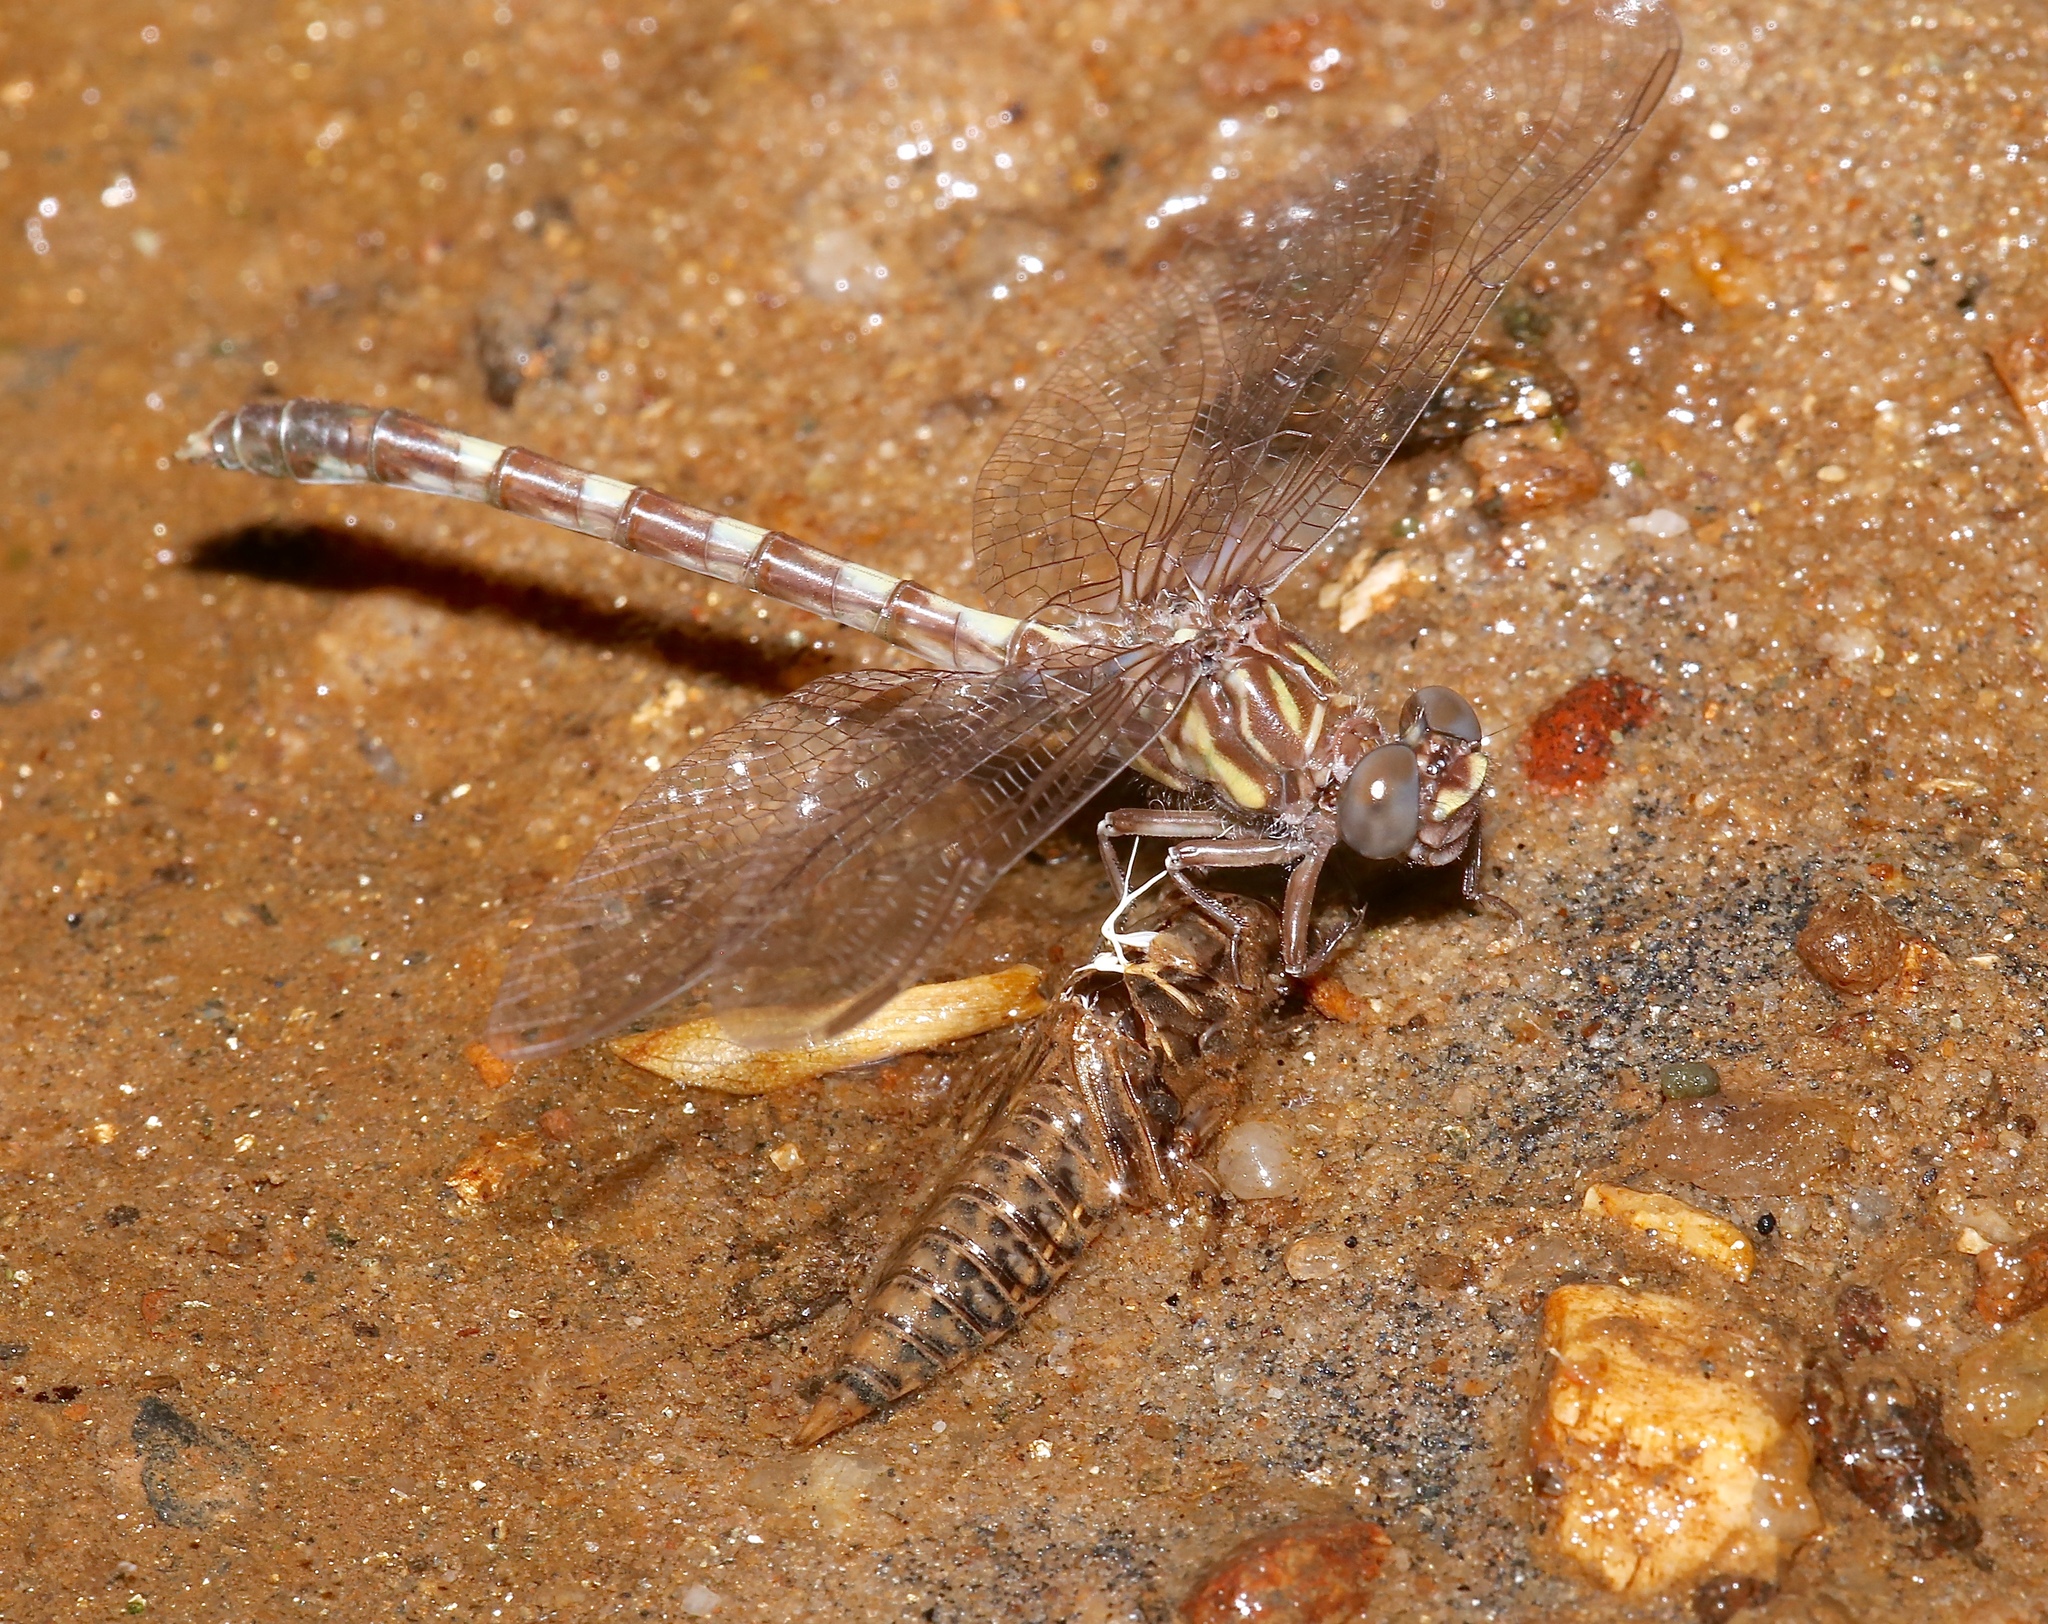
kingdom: Animalia
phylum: Arthropoda
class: Insecta
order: Odonata
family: Gomphidae
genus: Progomphus
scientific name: Progomphus obscurus
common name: Common sanddragon
